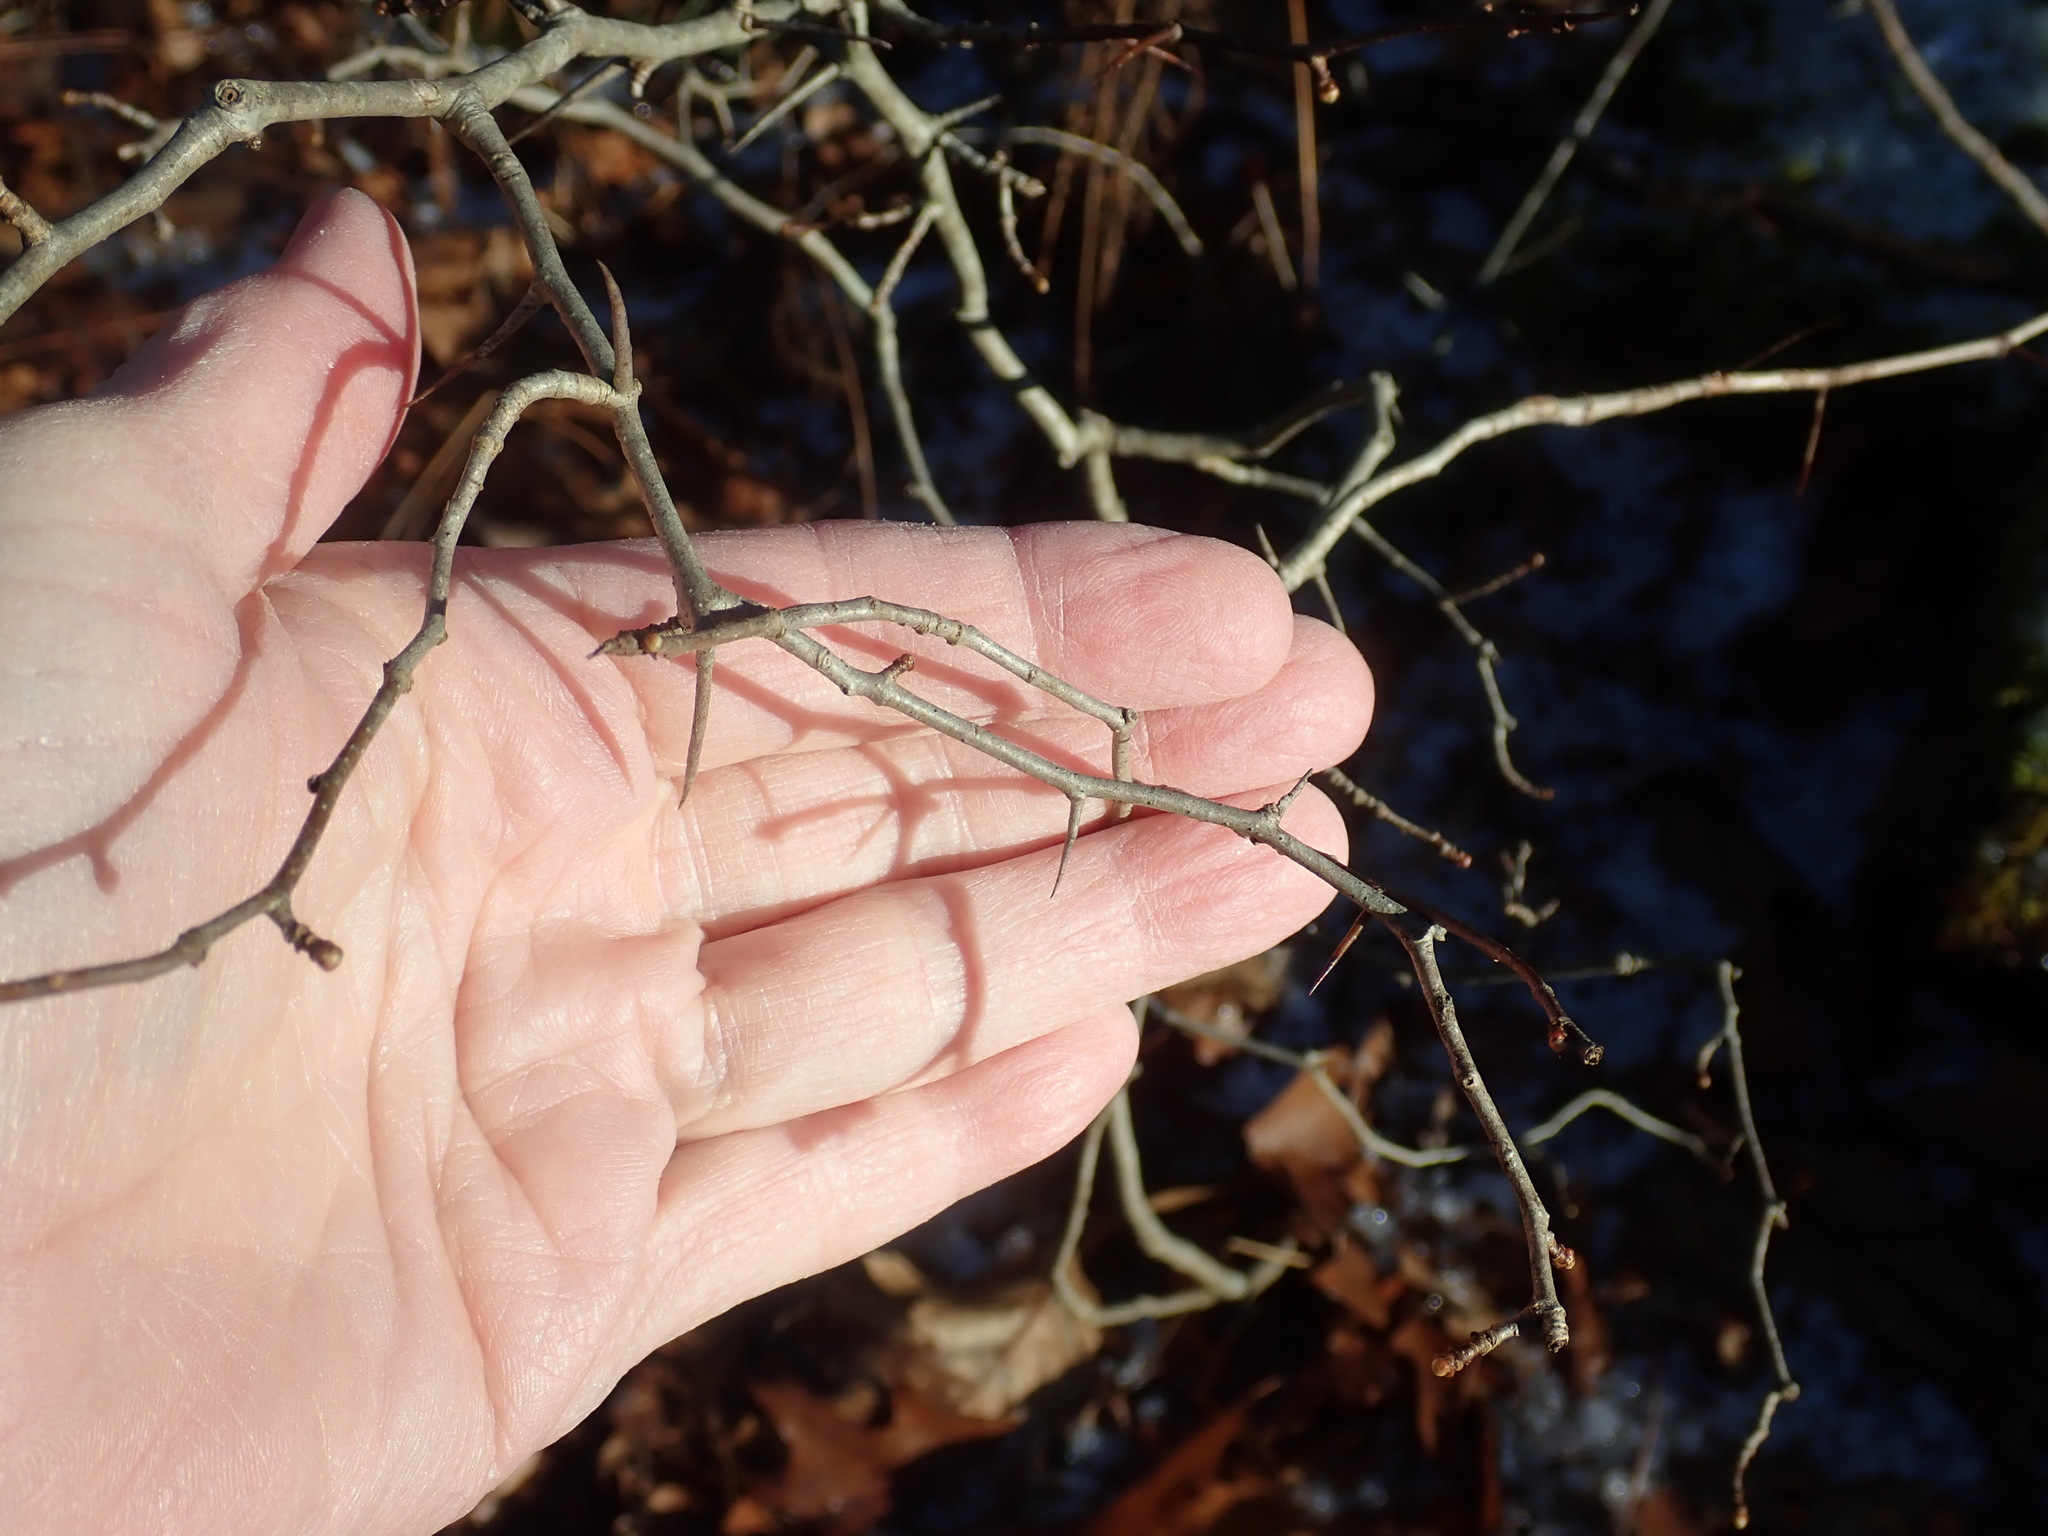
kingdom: Plantae
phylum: Tracheophyta
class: Magnoliopsida
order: Rosales
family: Rosaceae
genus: Crataegus
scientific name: Crataegus
